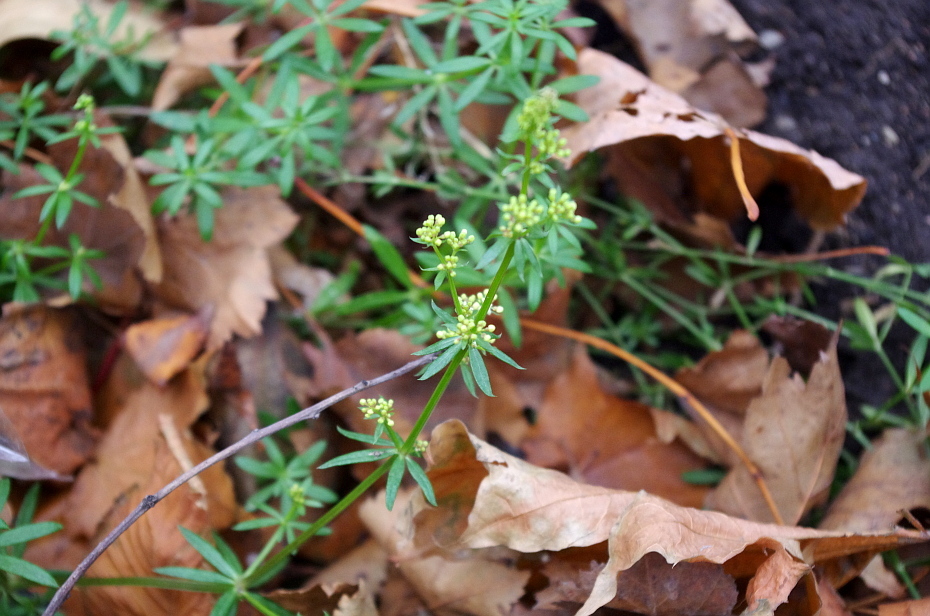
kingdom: Plantae
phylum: Tracheophyta
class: Magnoliopsida
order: Gentianales
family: Rubiaceae
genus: Galium
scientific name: Galium mollugo
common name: Hedge bedstraw
